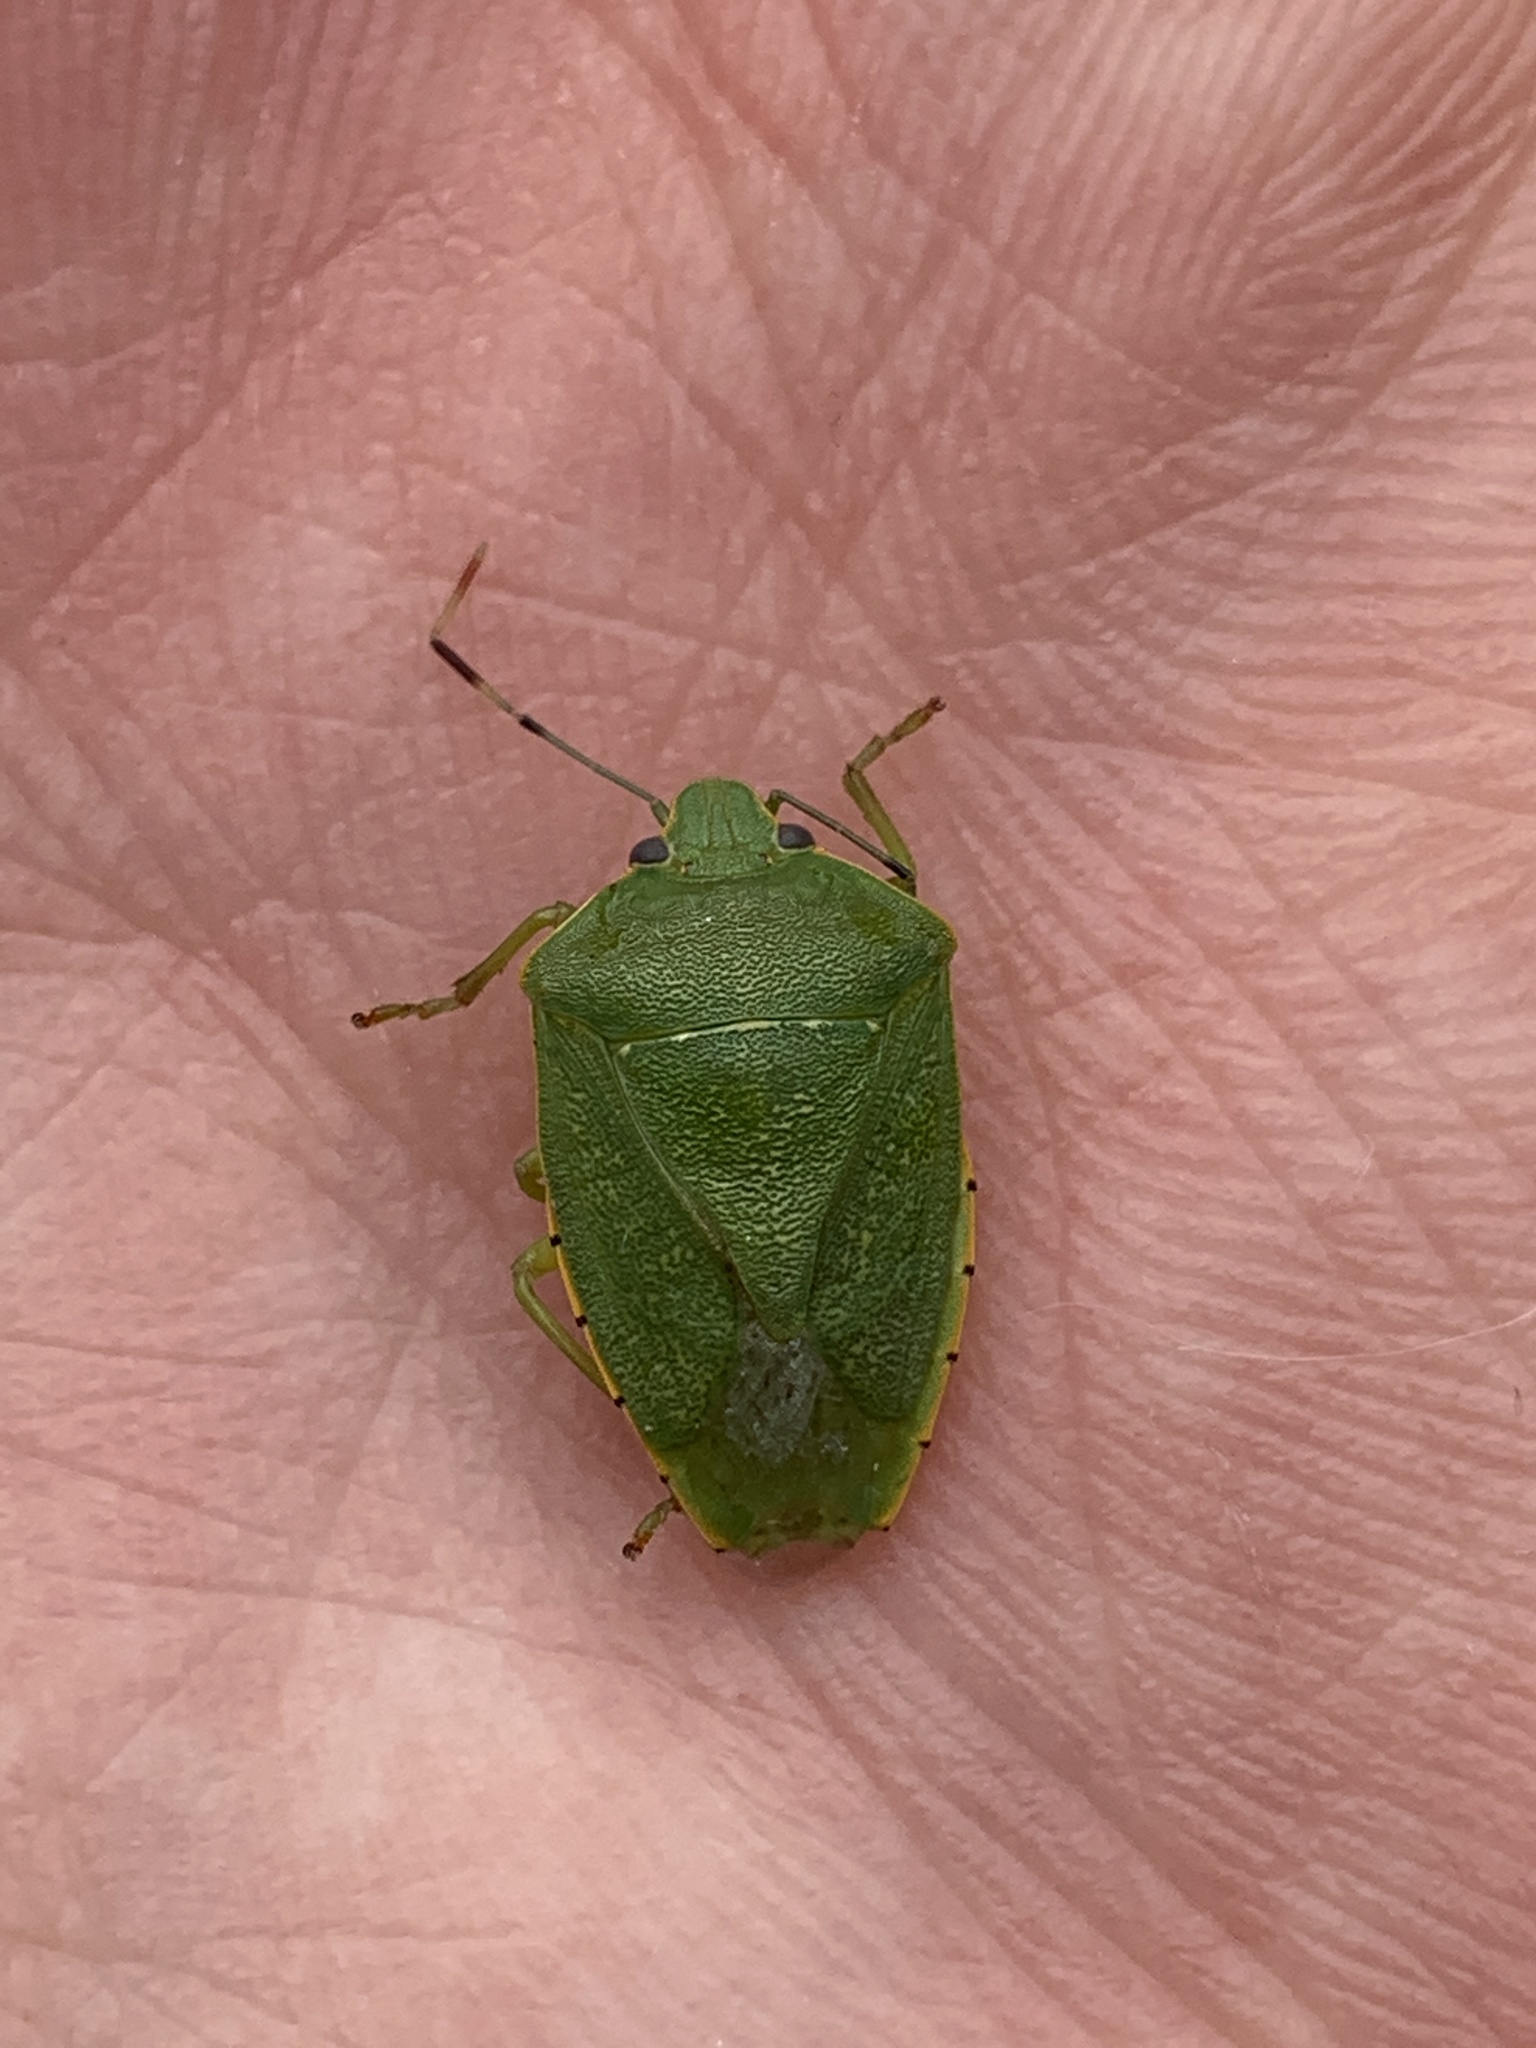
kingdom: Animalia
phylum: Arthropoda
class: Insecta
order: Hemiptera
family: Pentatomidae
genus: Chinavia
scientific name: Chinavia hilaris
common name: Green stink bug
